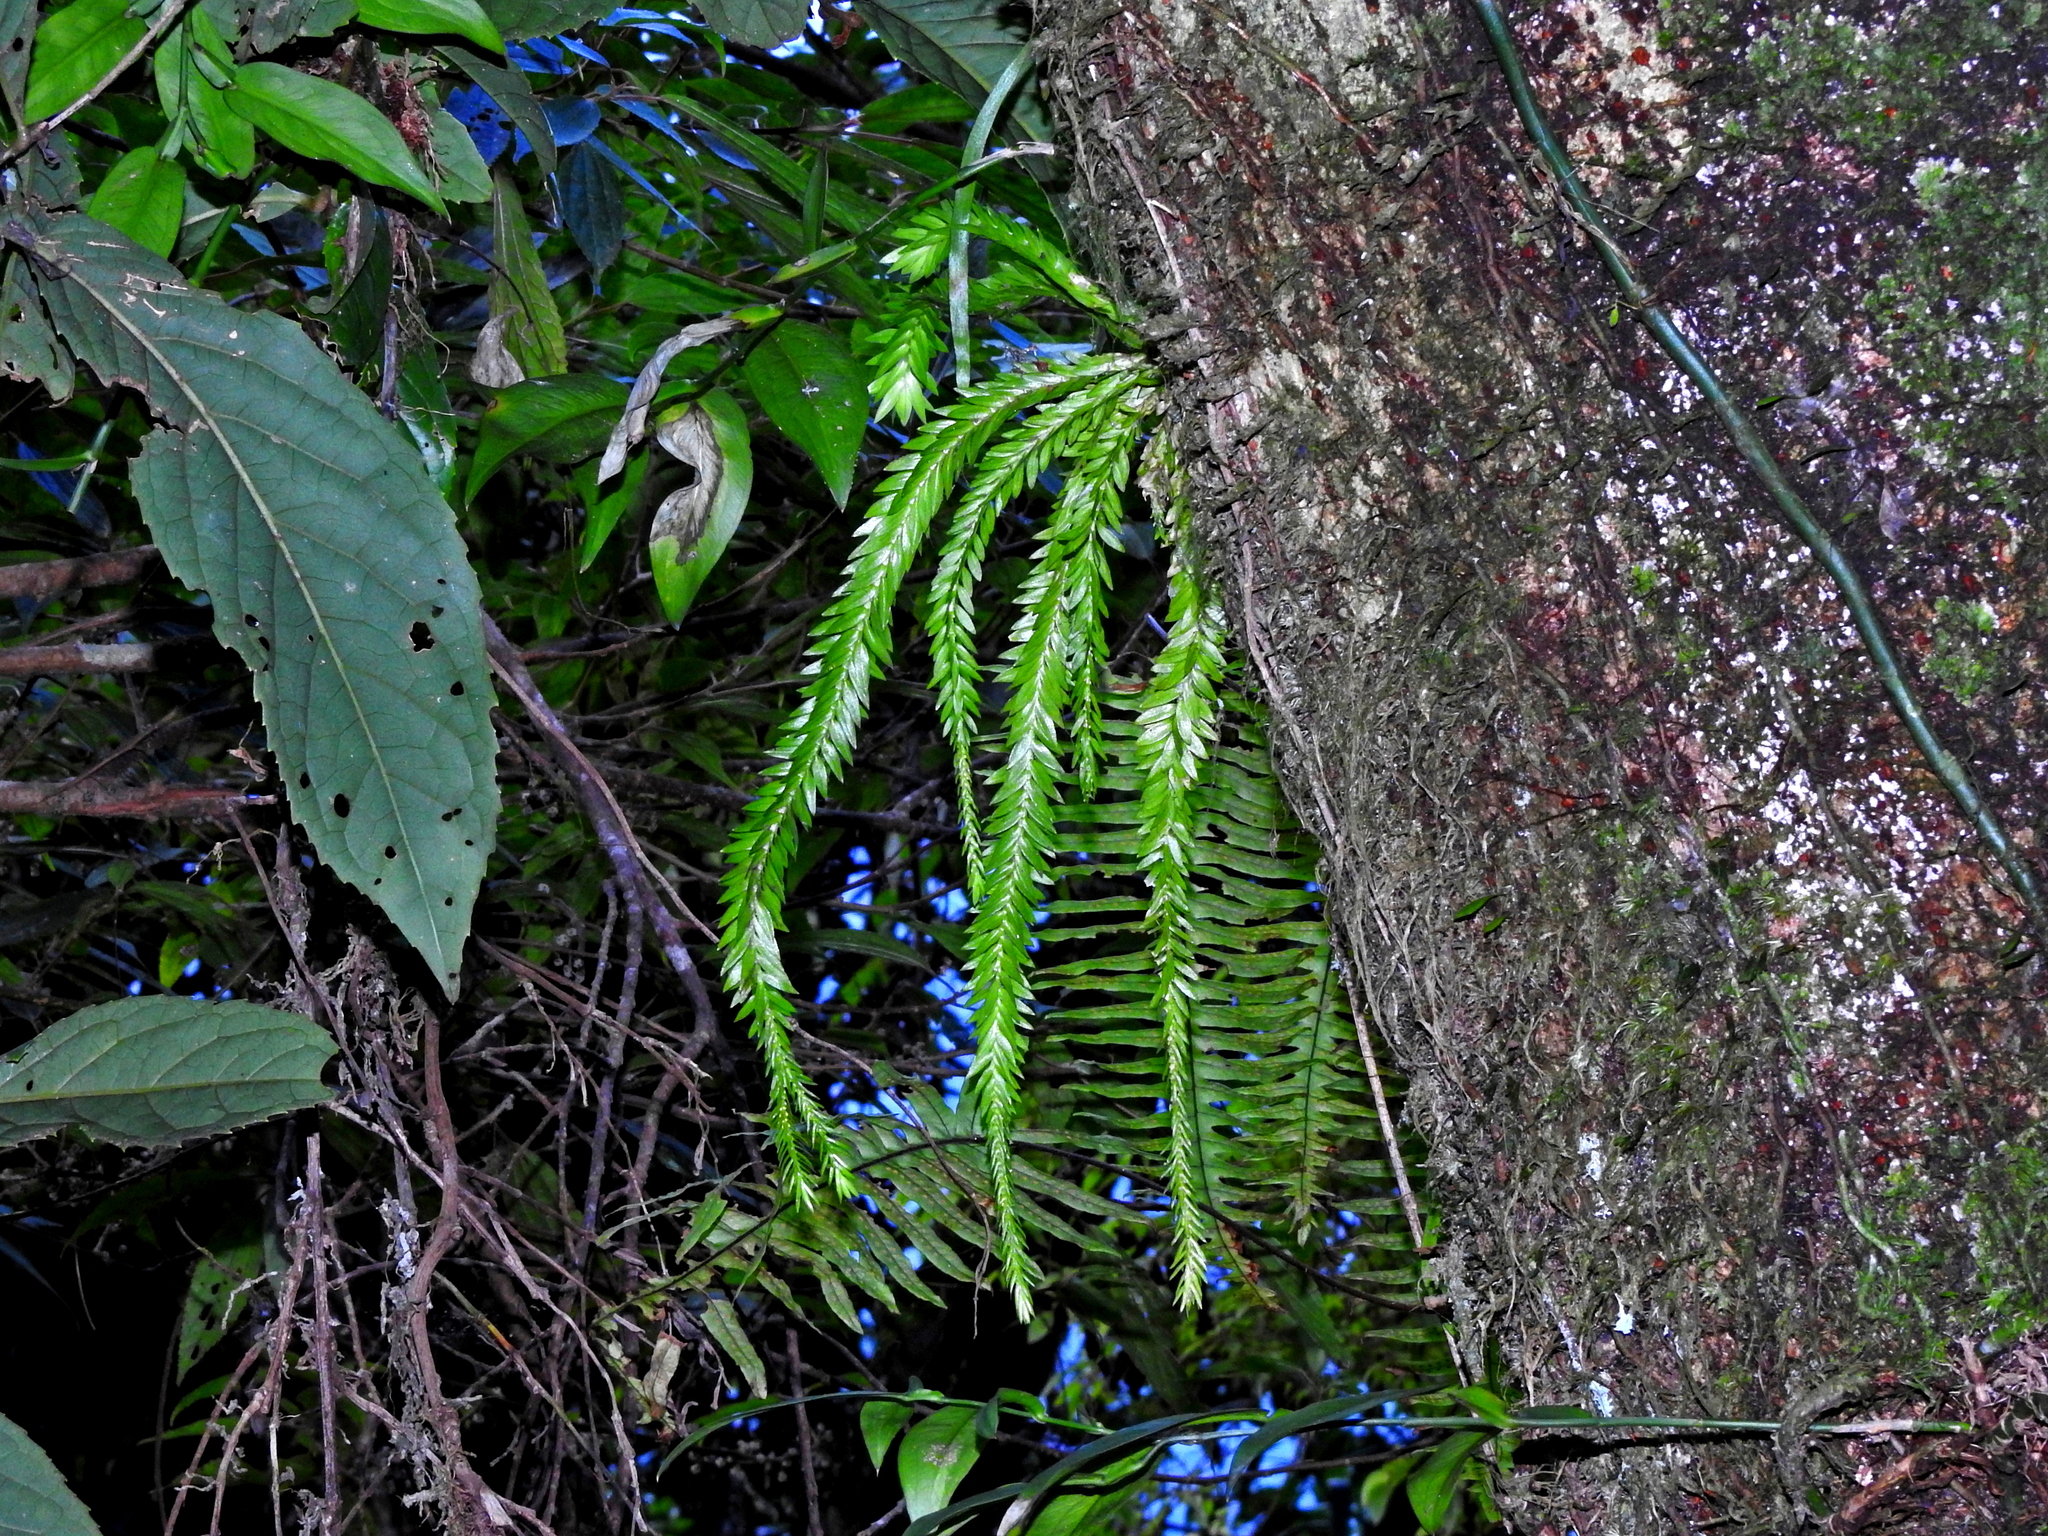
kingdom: Plantae
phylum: Tracheophyta
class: Lycopodiopsida
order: Lycopodiales
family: Lycopodiaceae
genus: Phlegmariurus
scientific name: Phlegmariurus fordii
